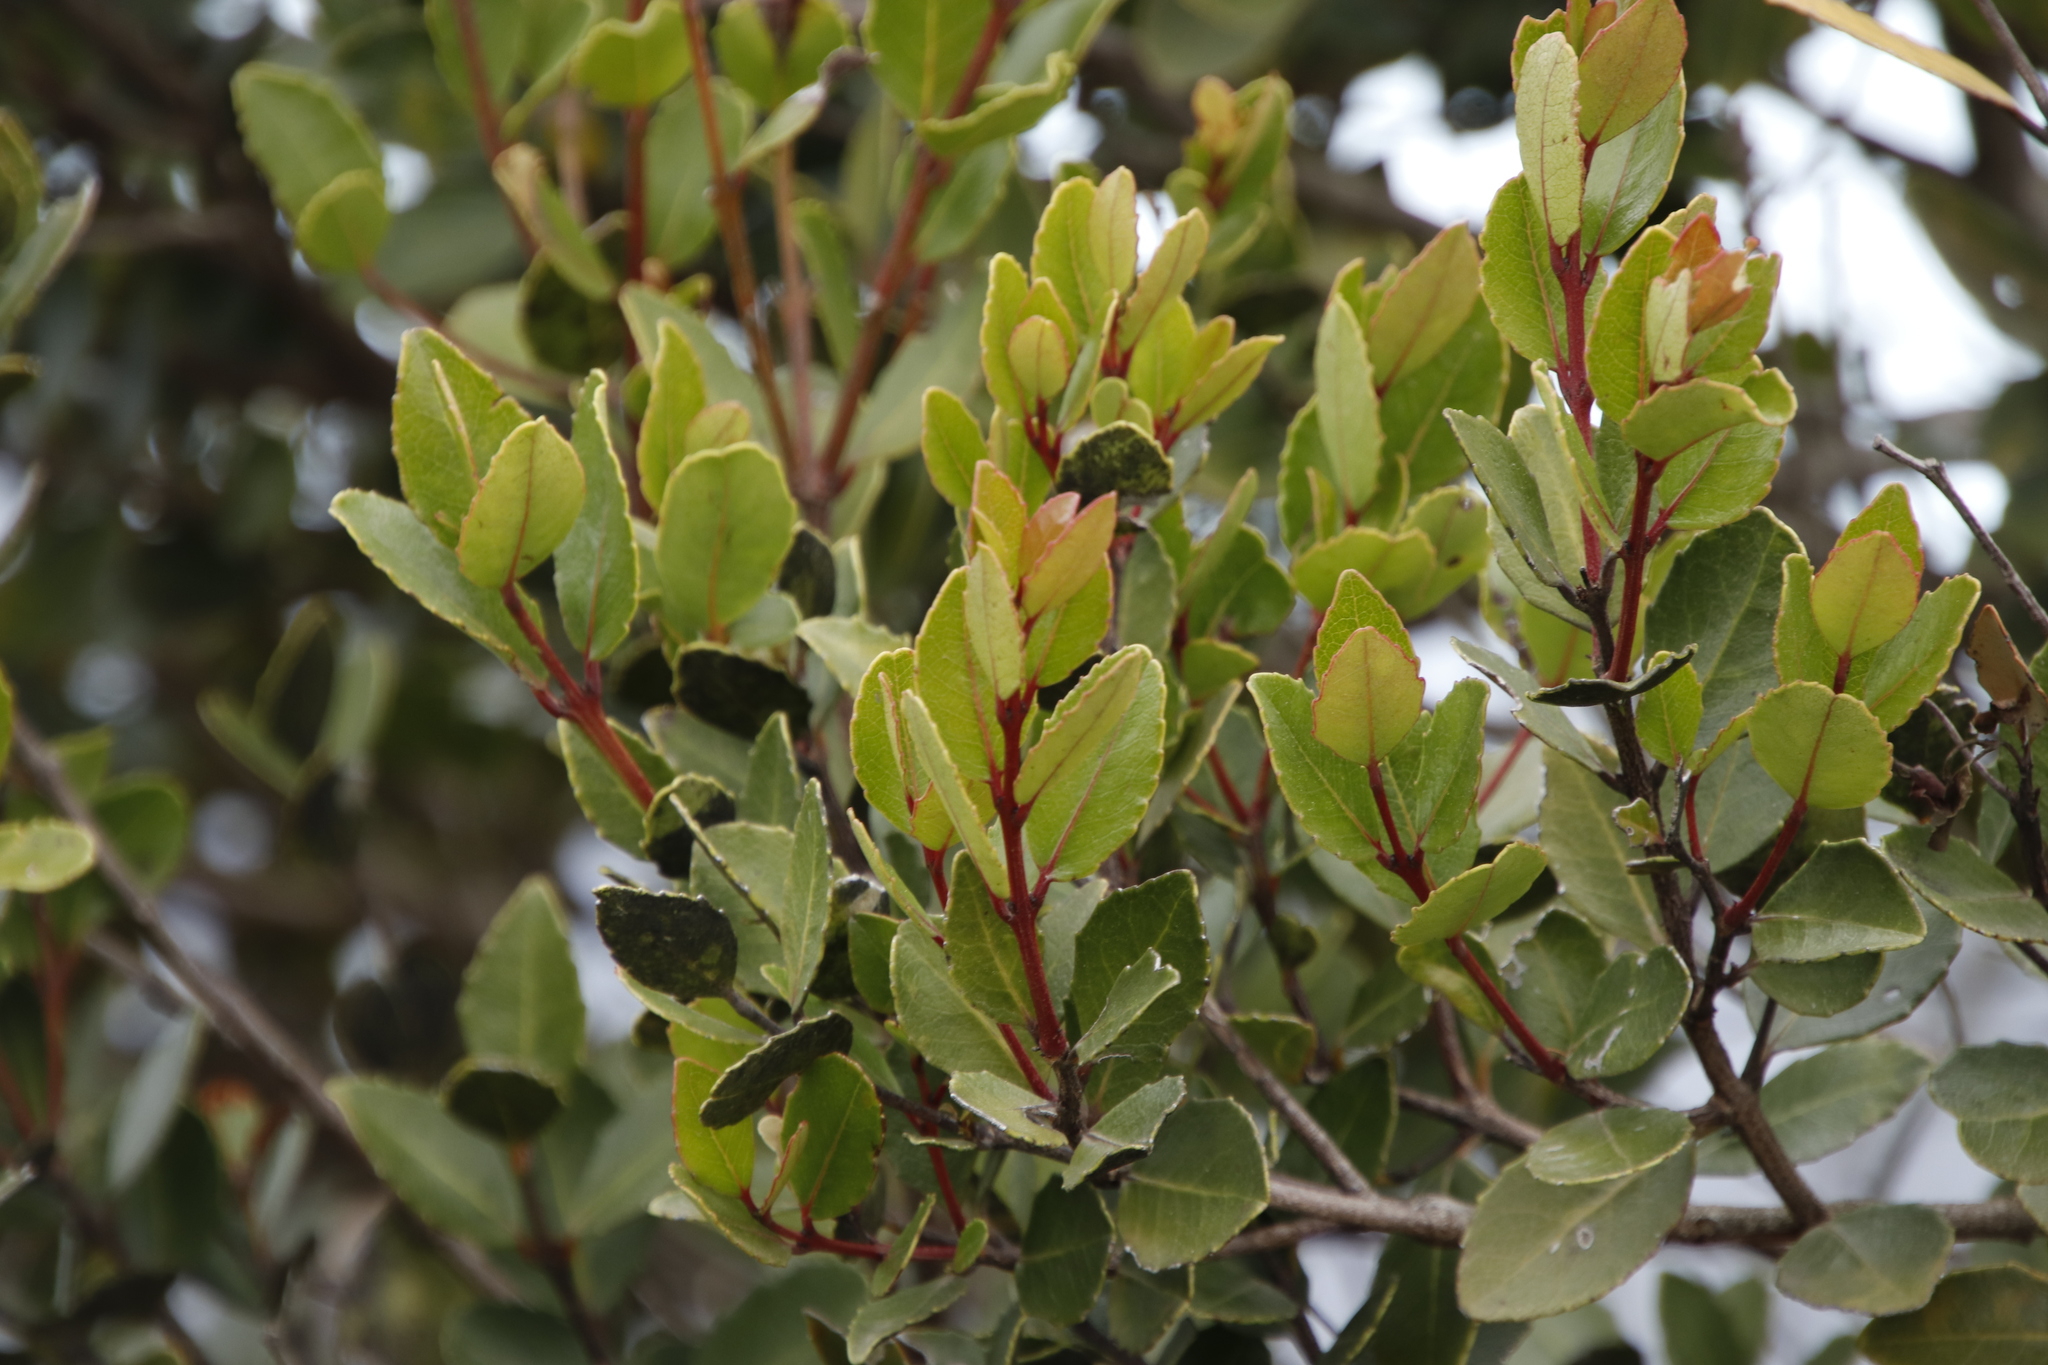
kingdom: Plantae
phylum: Tracheophyta
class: Magnoliopsida
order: Celastrales
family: Celastraceae
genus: Cassine
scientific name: Cassine peragua
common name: Cape saffron
